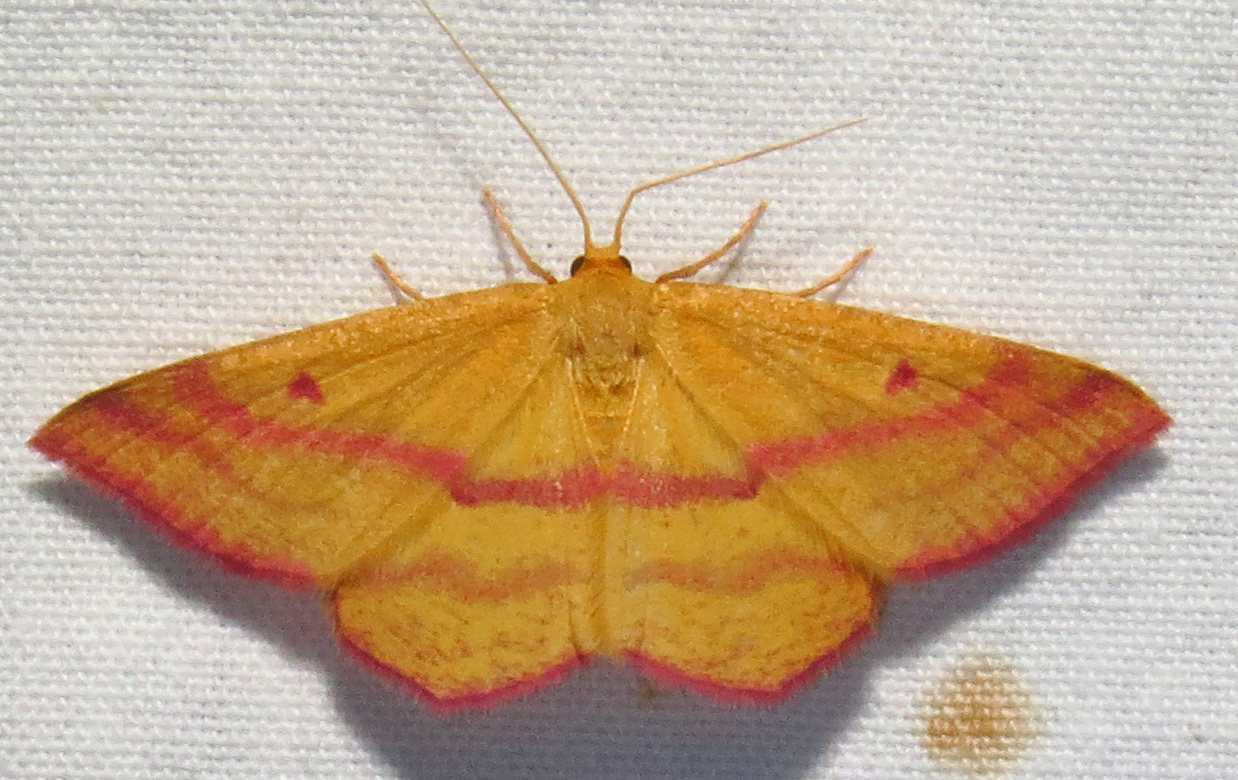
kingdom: Animalia
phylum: Arthropoda
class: Insecta
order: Lepidoptera
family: Geometridae
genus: Haematopis
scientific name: Haematopis grataria
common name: Chickweed geometer
